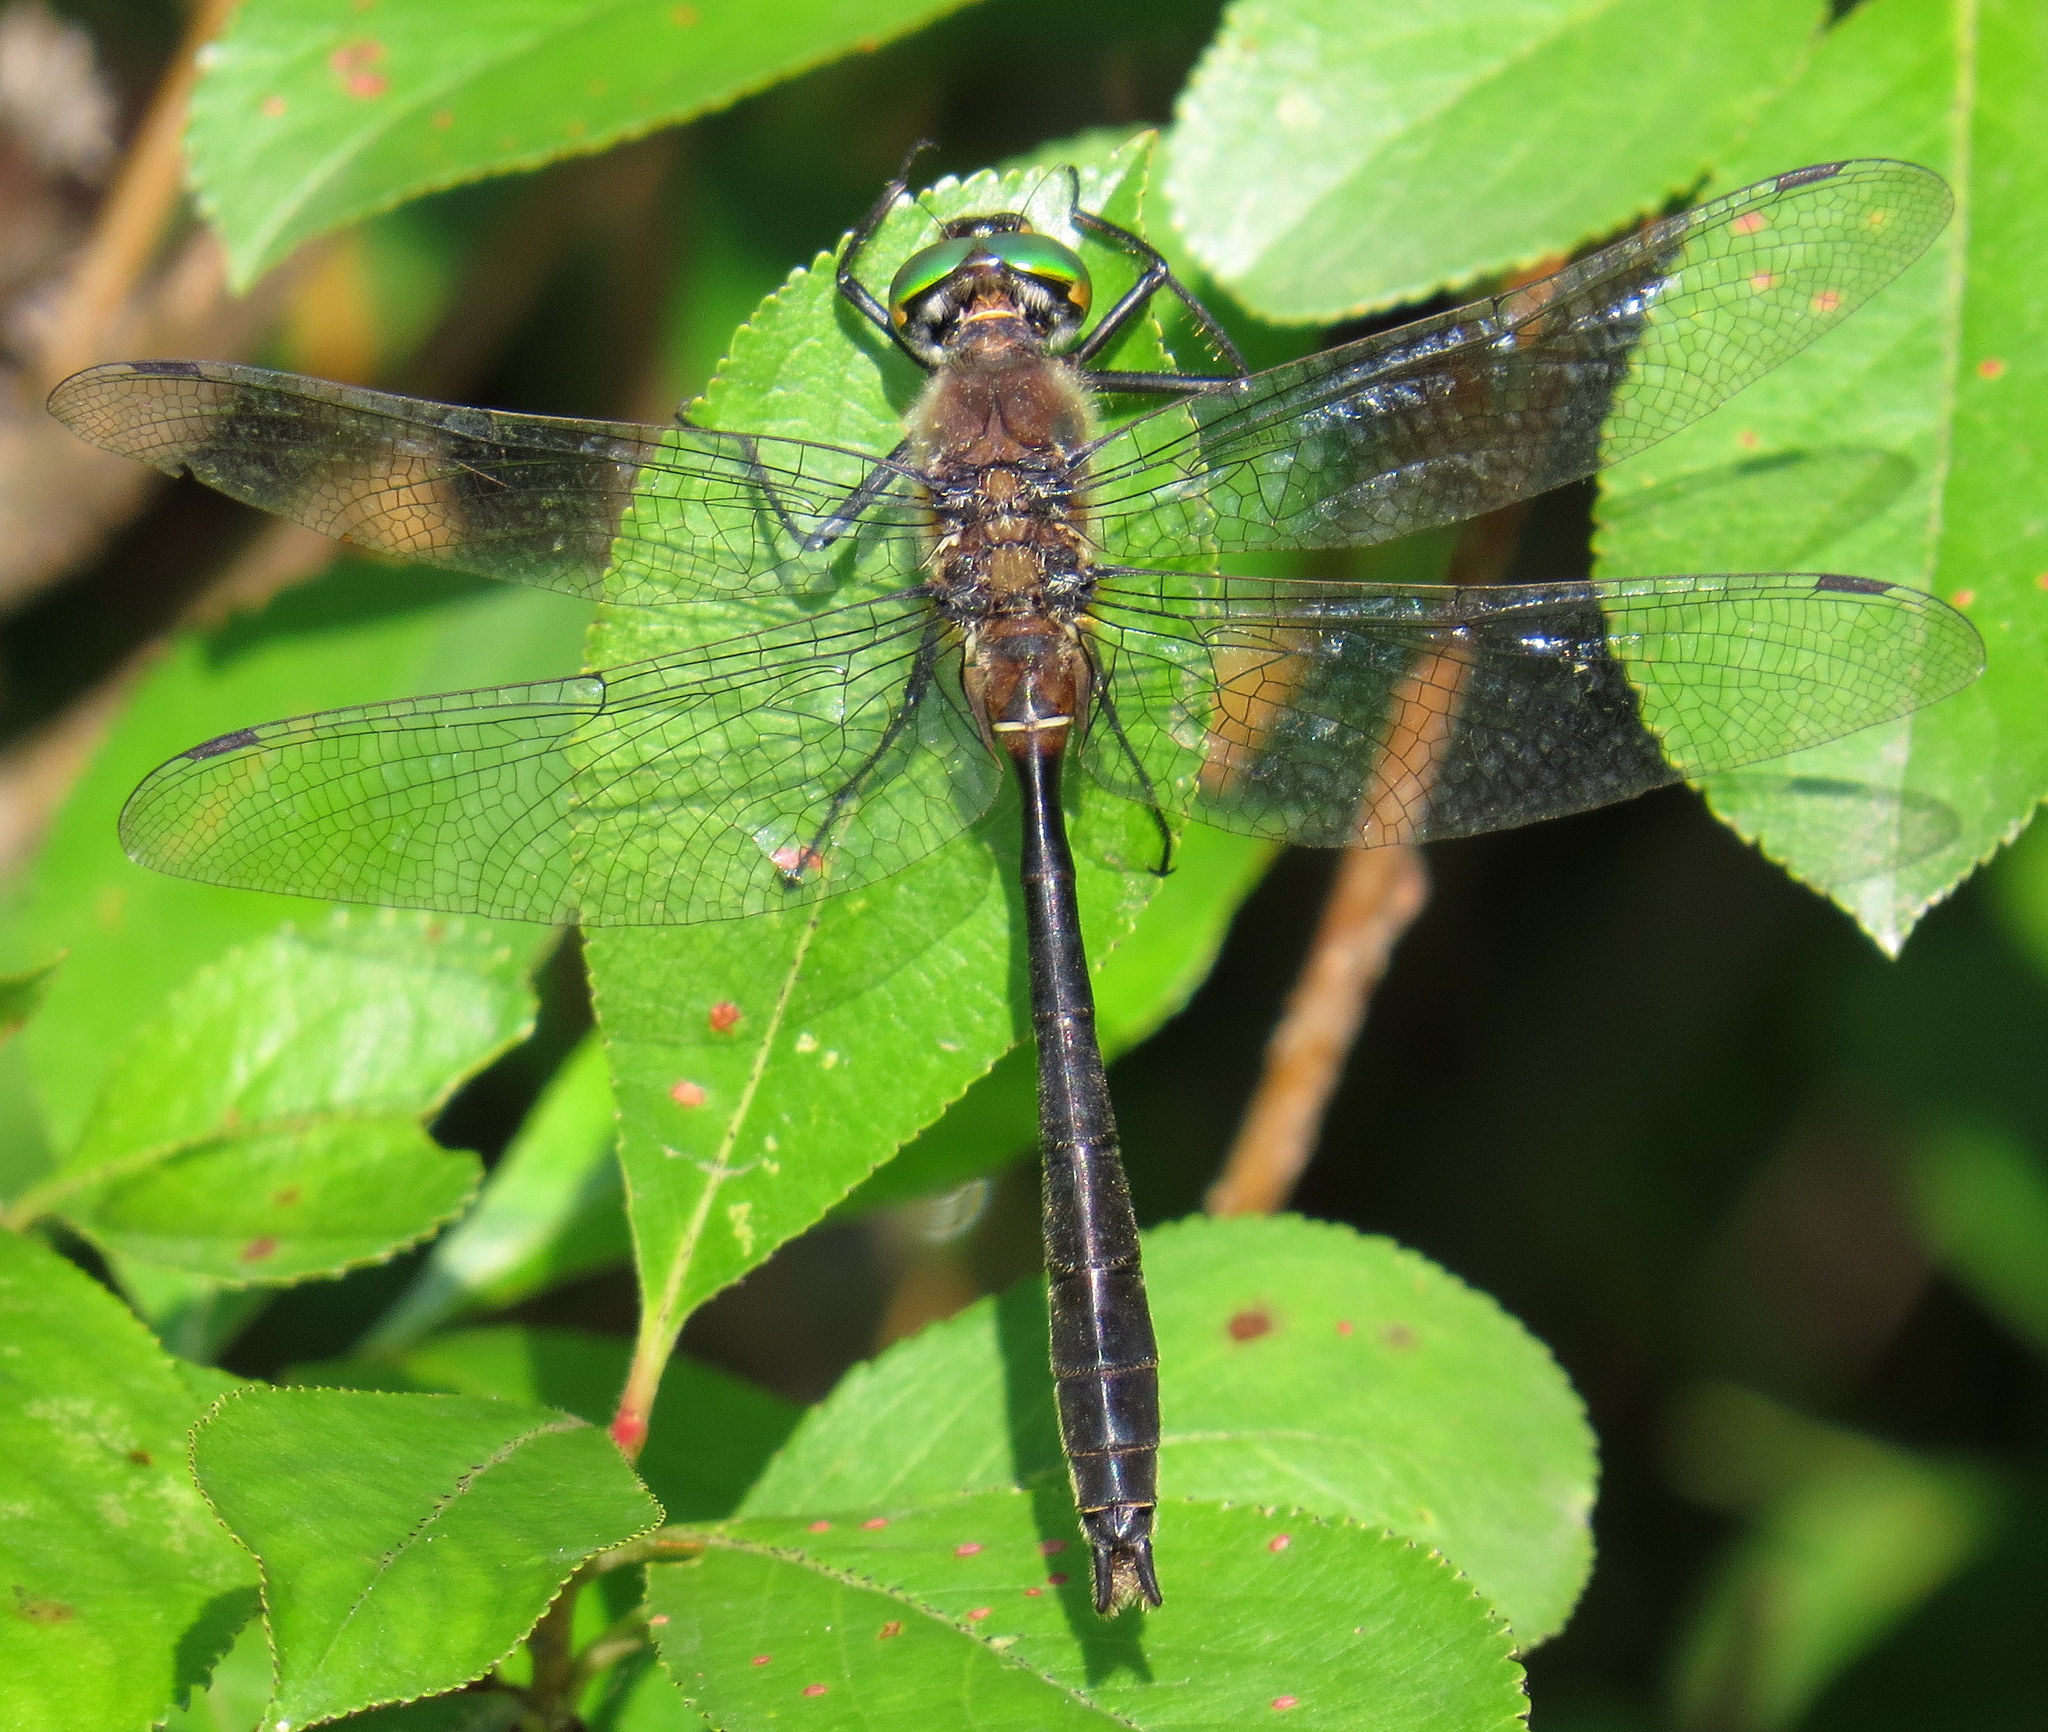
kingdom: Animalia
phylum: Arthropoda
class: Insecta
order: Odonata
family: Corduliidae
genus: Cordulia
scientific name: Cordulia shurtleffii
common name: American emerald
